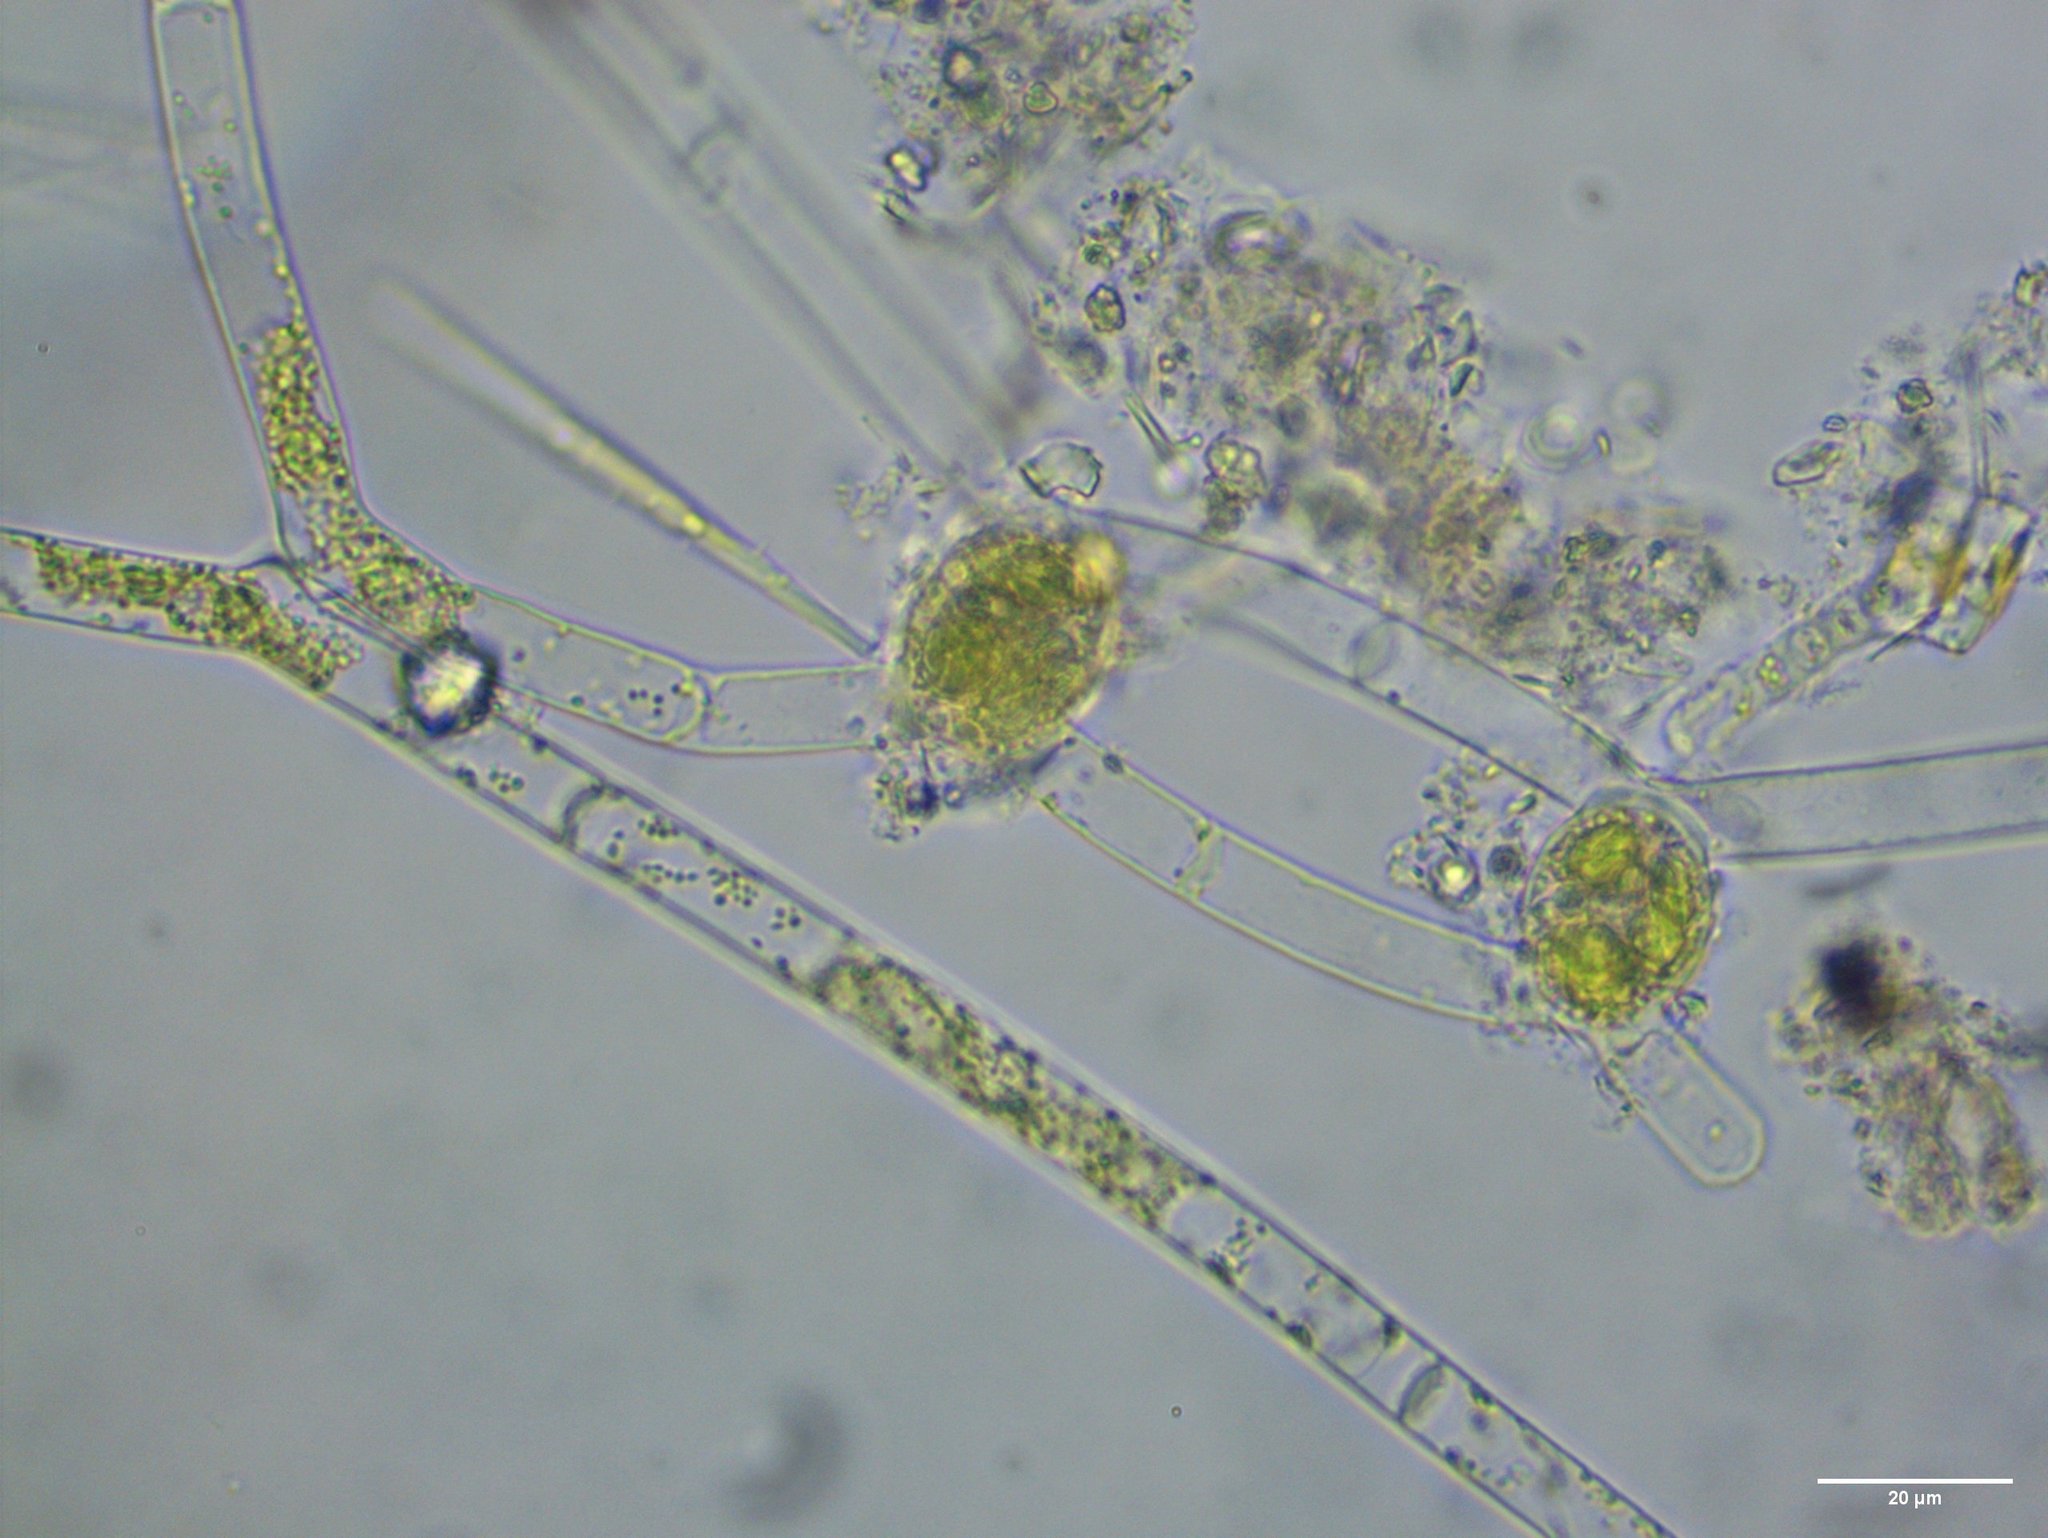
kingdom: Plantae
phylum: Charophyta
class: Zygnematophyceae
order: Zygnematales
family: Zygnemataceae
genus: Mougeotia
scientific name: Mougeotia
